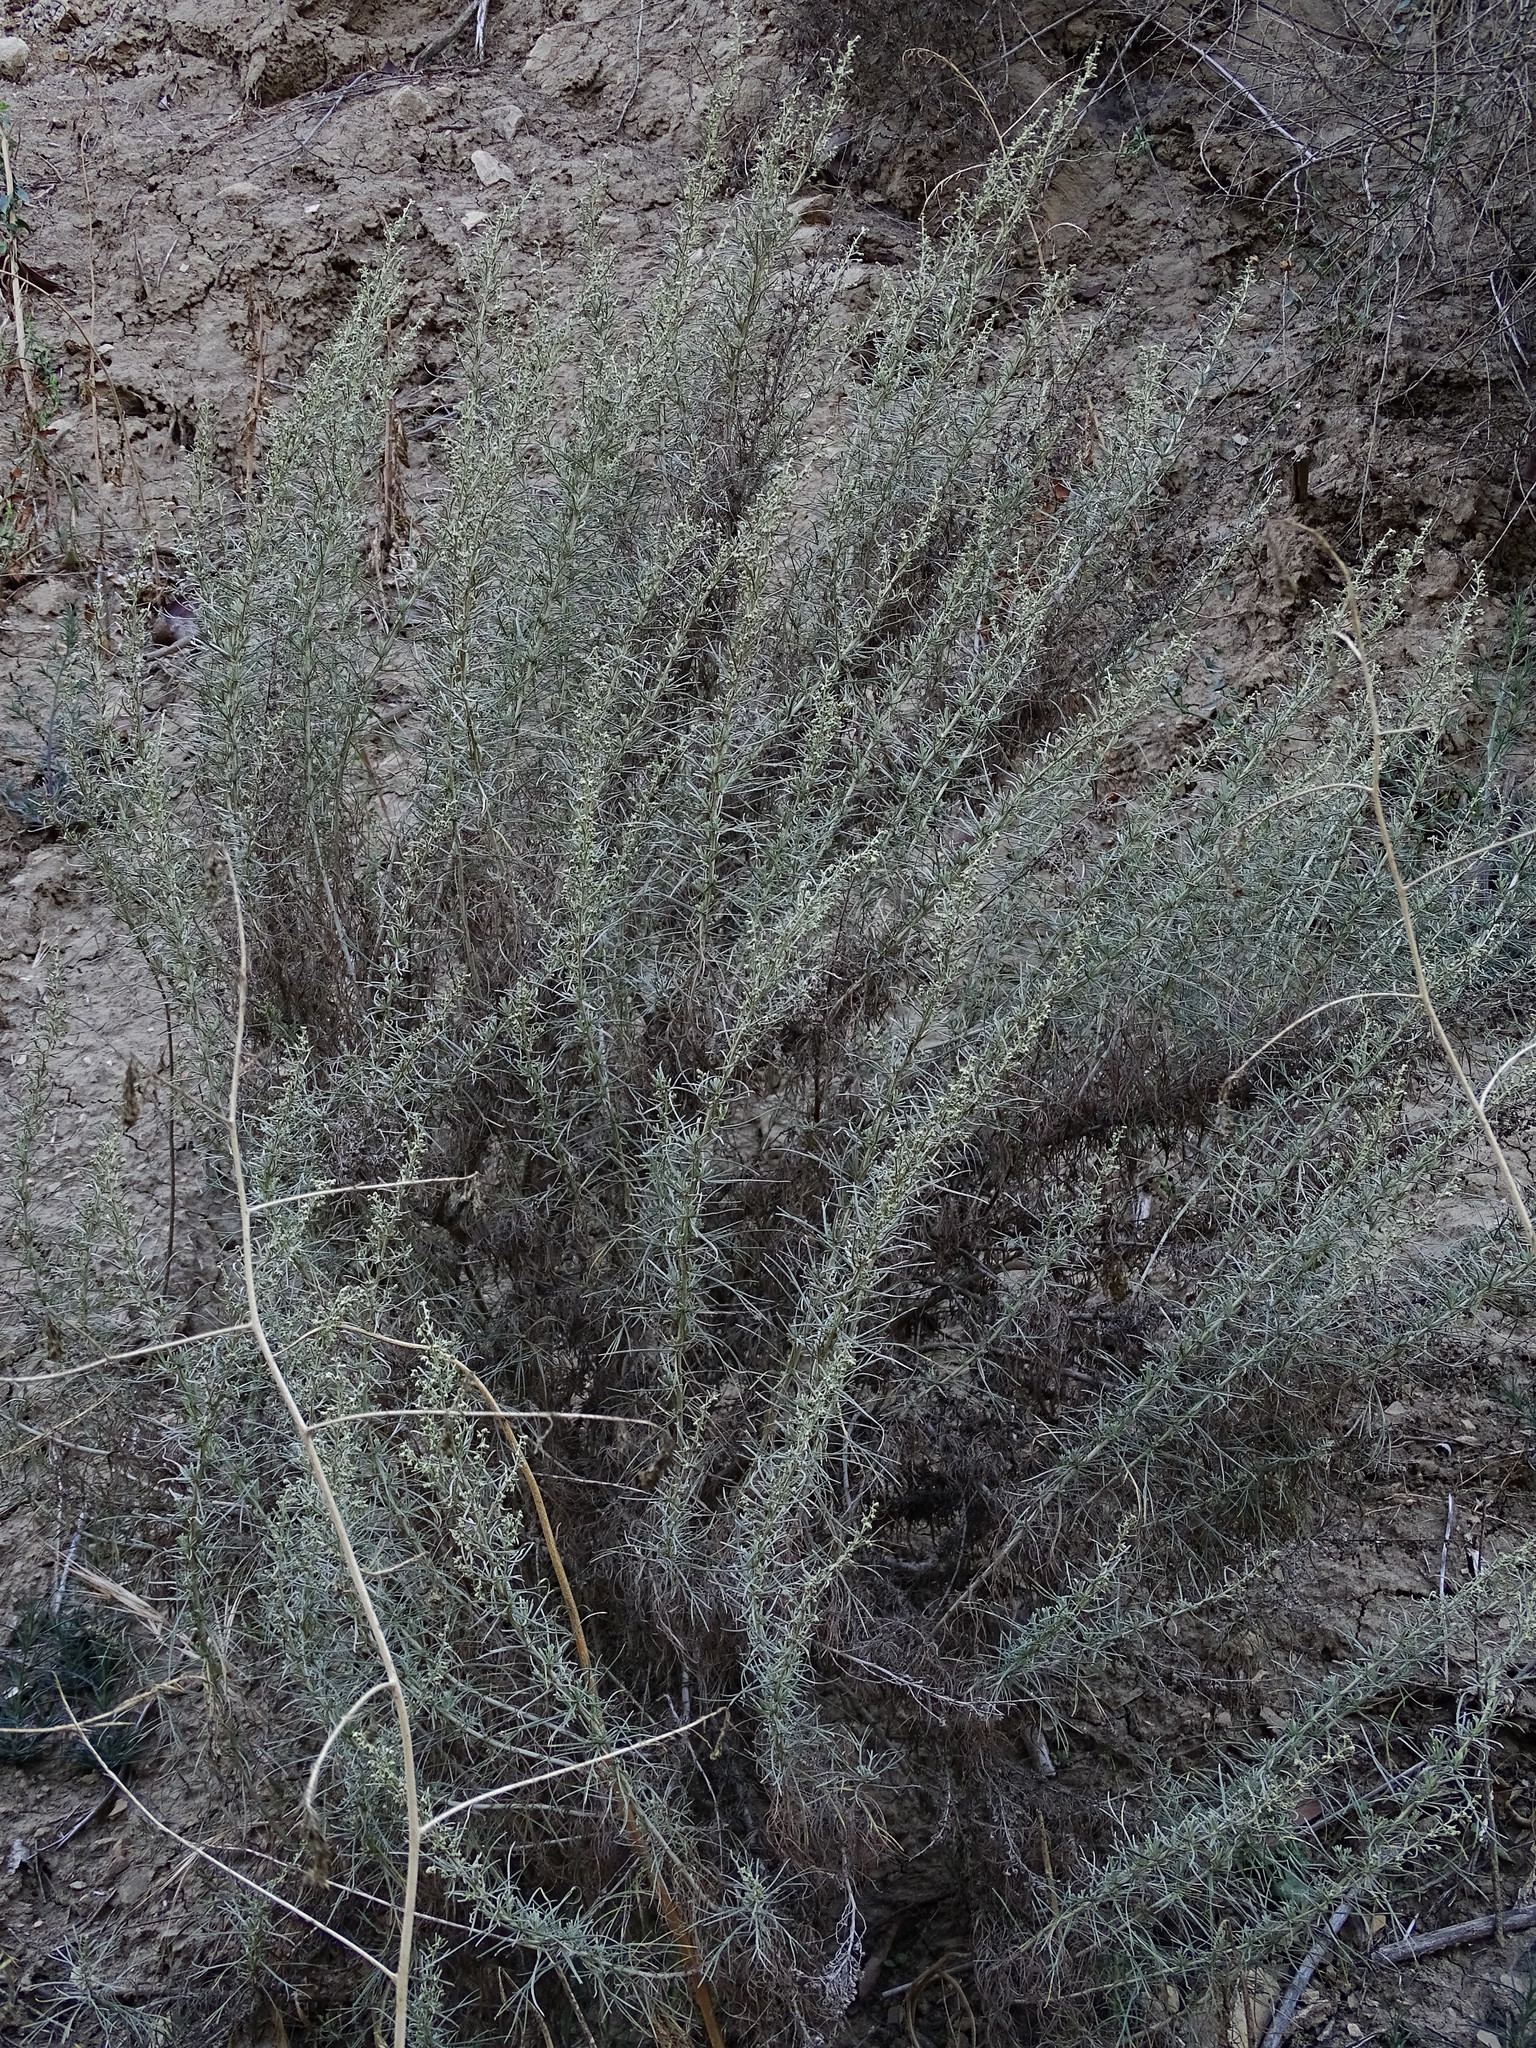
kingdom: Plantae
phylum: Tracheophyta
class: Magnoliopsida
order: Asterales
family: Asteraceae
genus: Artemisia
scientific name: Artemisia californica
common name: California sagebrush
